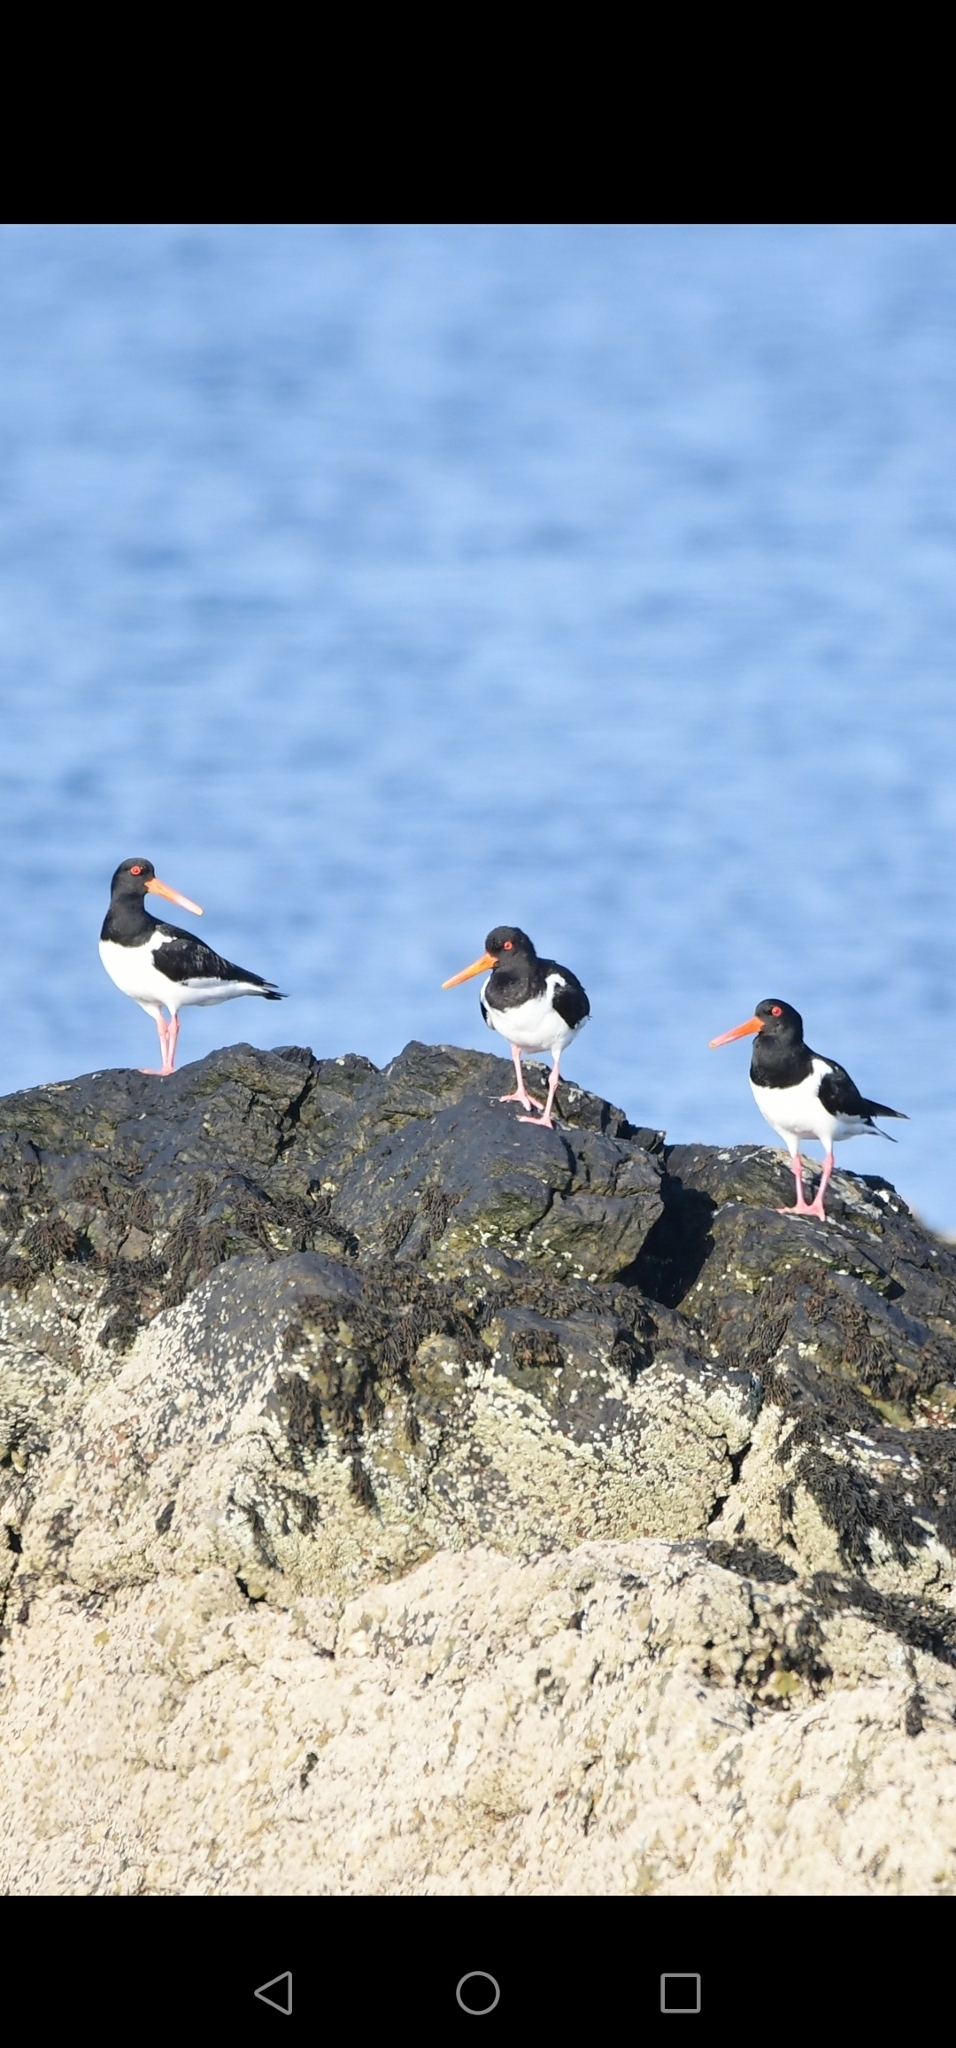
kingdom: Animalia
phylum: Chordata
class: Aves
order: Charadriiformes
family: Haematopodidae
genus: Haematopus
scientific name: Haematopus ostralegus
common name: Eurasian oystercatcher
